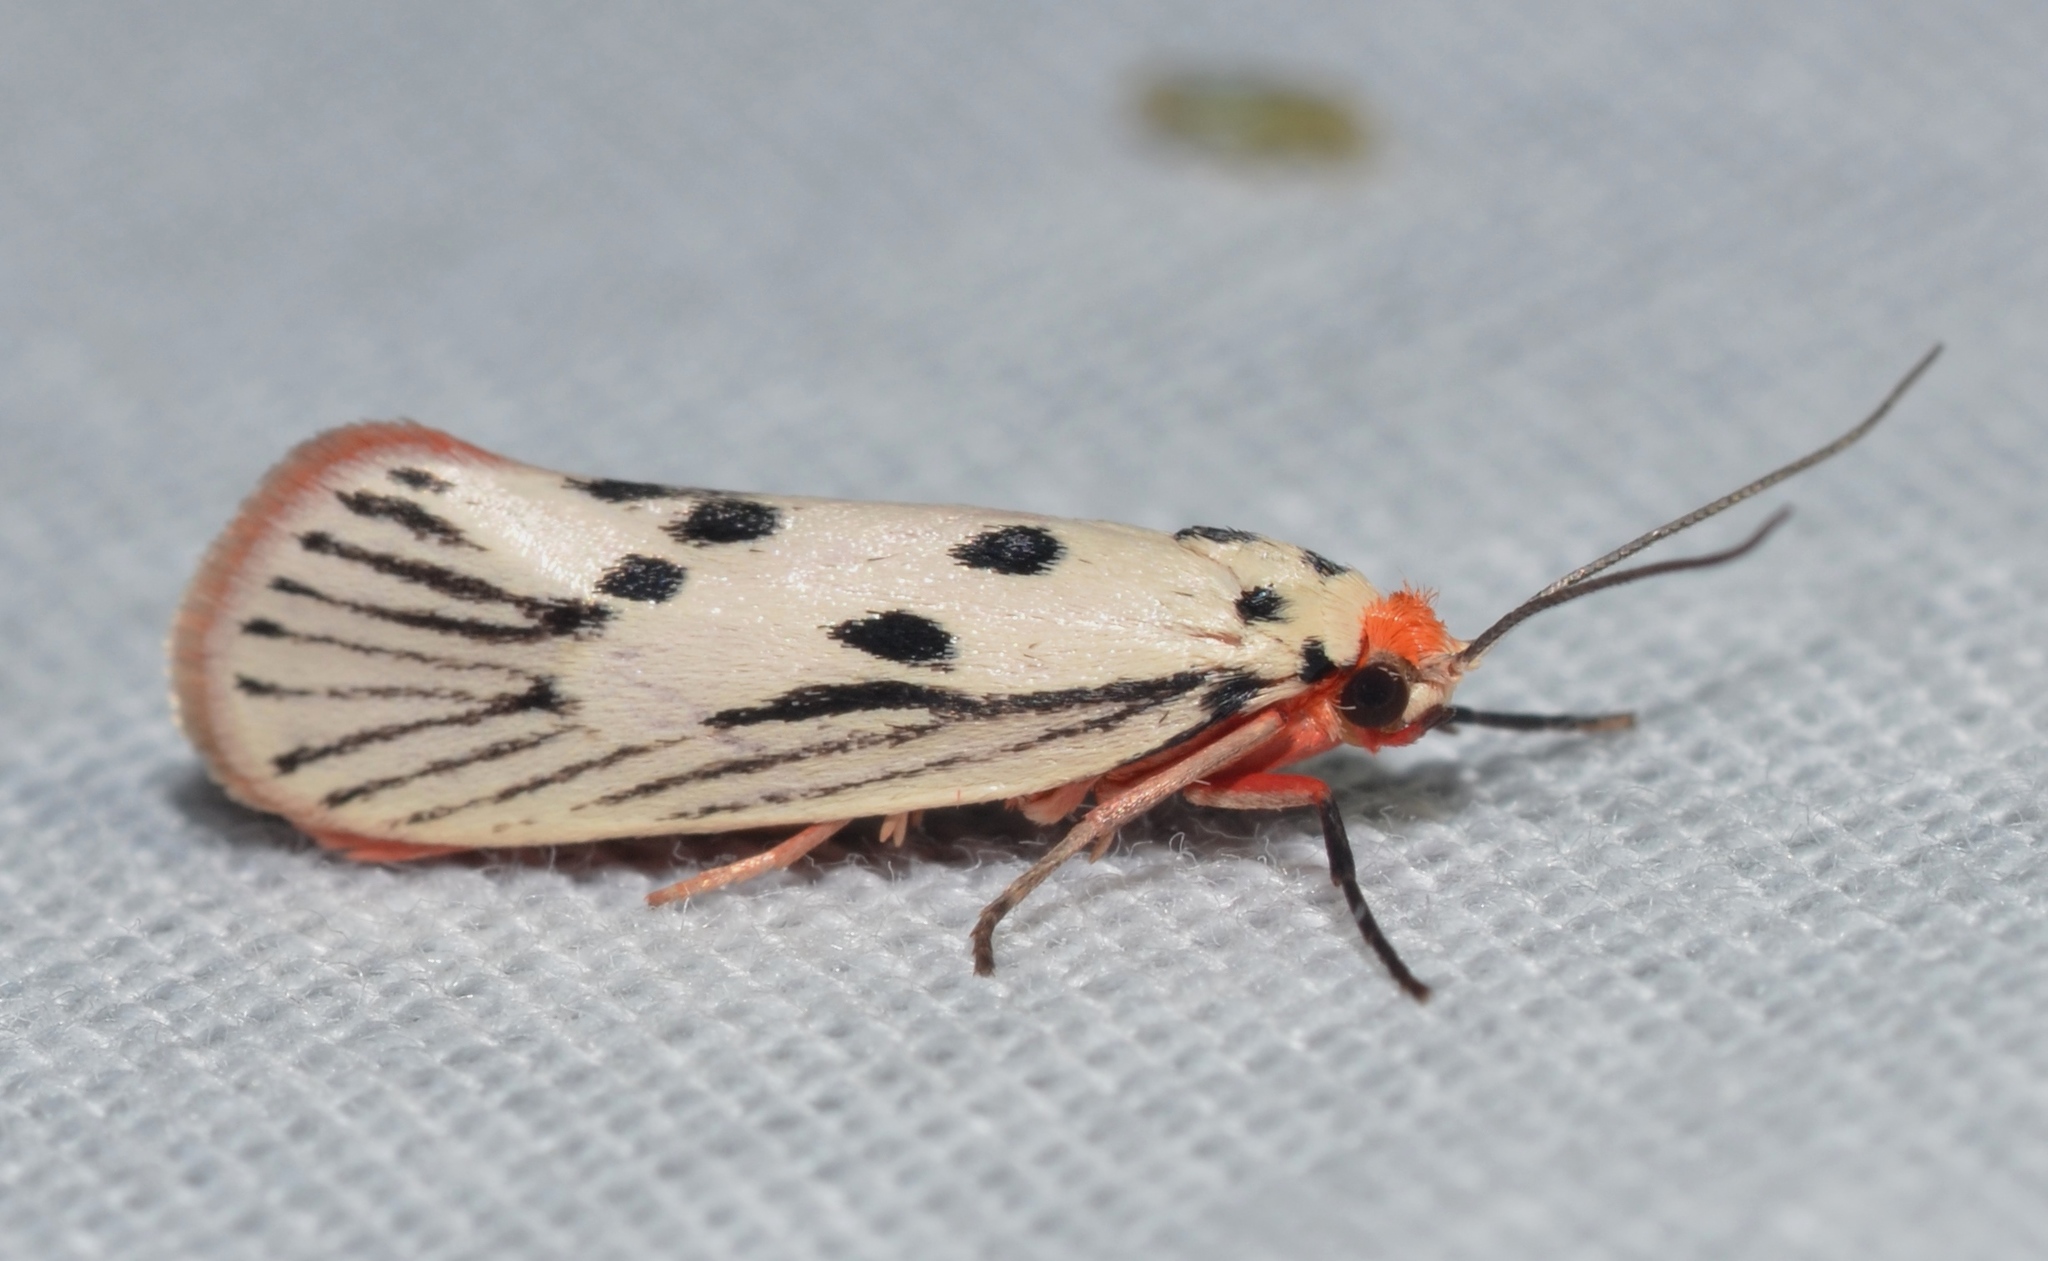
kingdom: Animalia
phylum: Arthropoda
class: Insecta
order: Lepidoptera
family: Lacturidae
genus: Lactura
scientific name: Lactura
